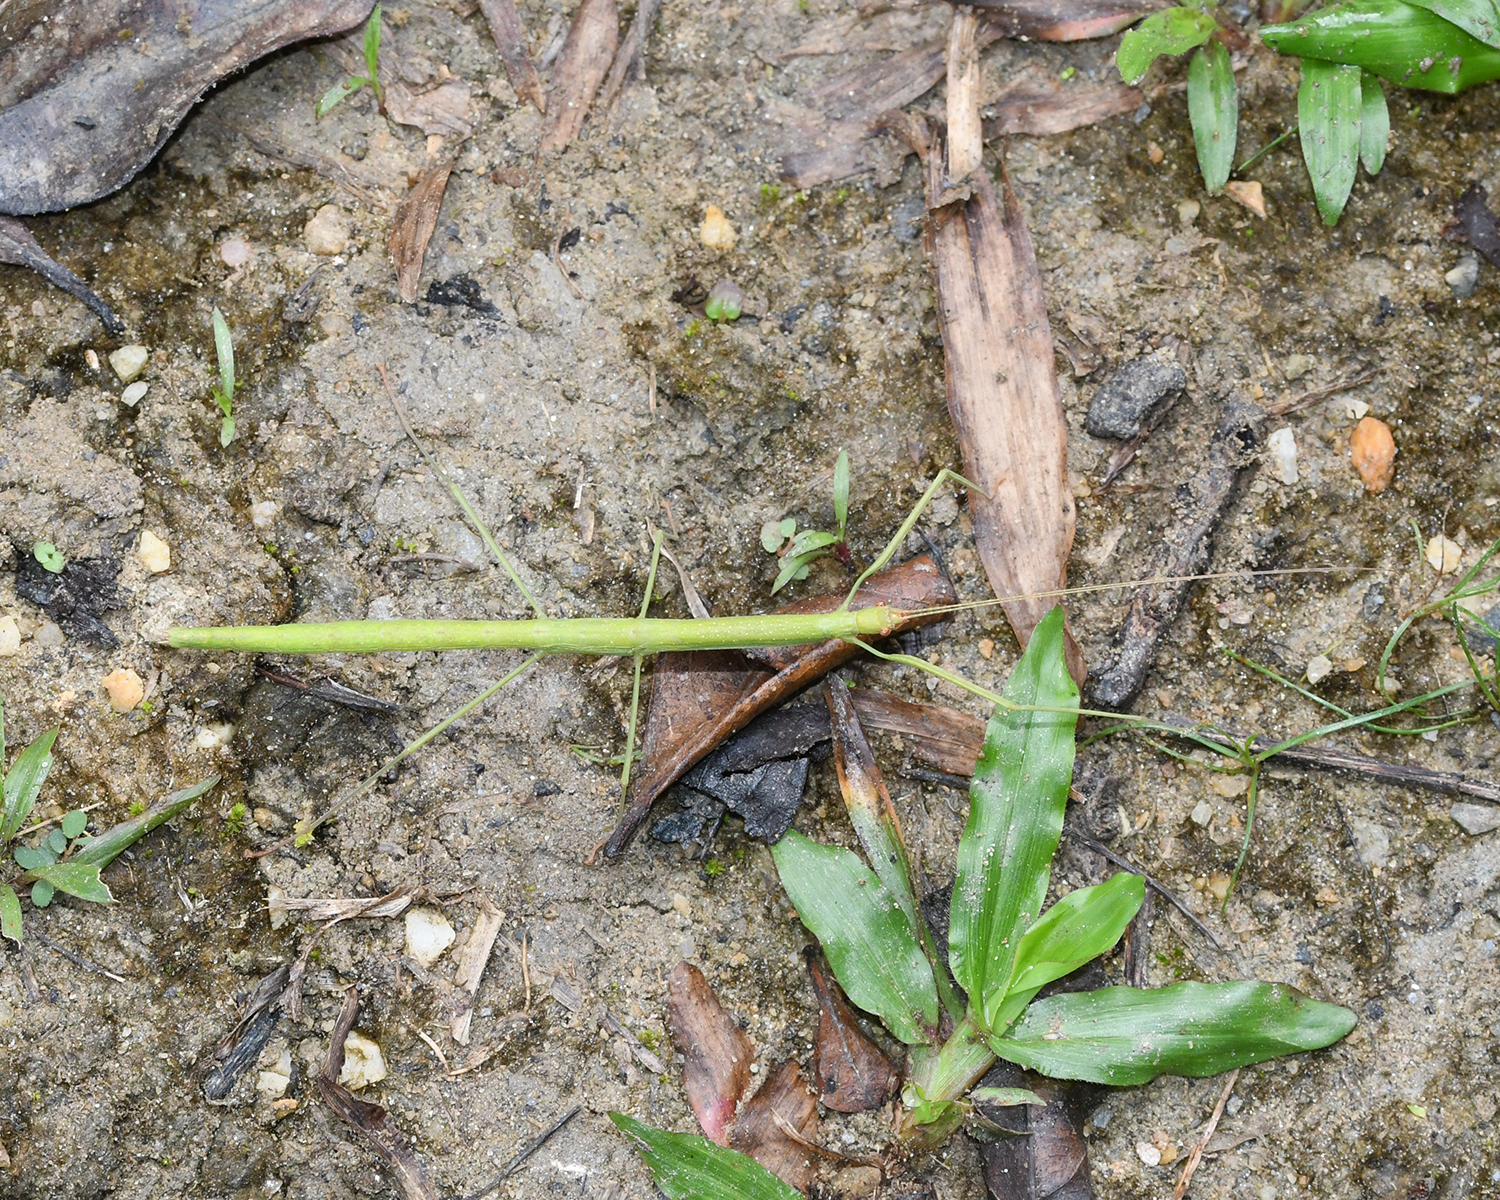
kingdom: Animalia
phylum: Arthropoda
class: Insecta
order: Phasmida
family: Diapheromeridae
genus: Clonistria
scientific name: Clonistria
